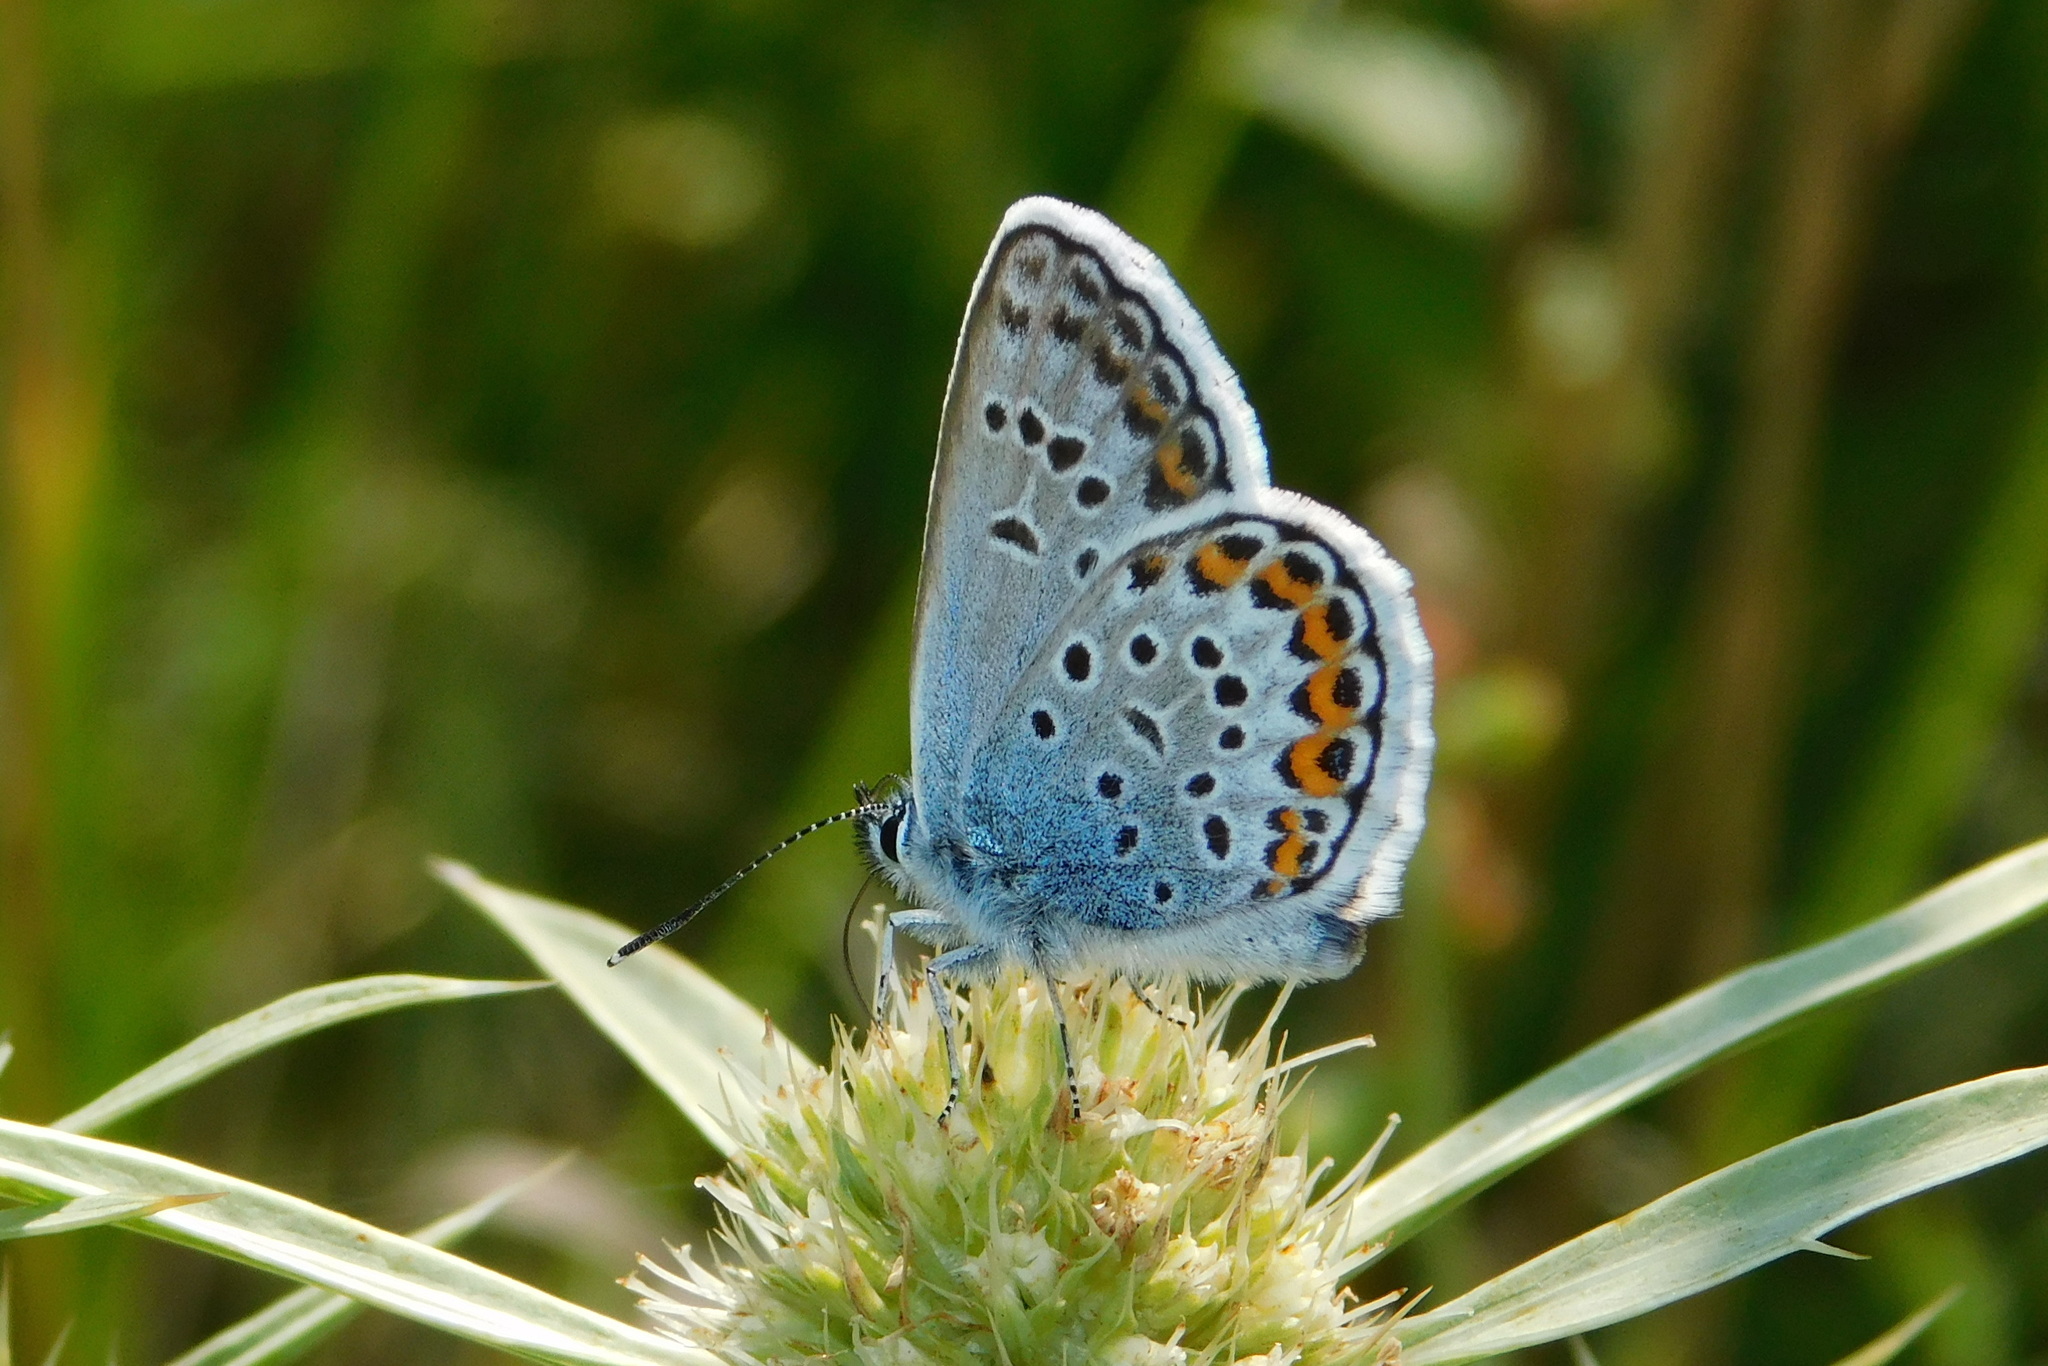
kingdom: Animalia
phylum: Arthropoda
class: Insecta
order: Lepidoptera
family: Lycaenidae
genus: Plebejus
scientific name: Plebejus argus
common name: Silver-studded blue
